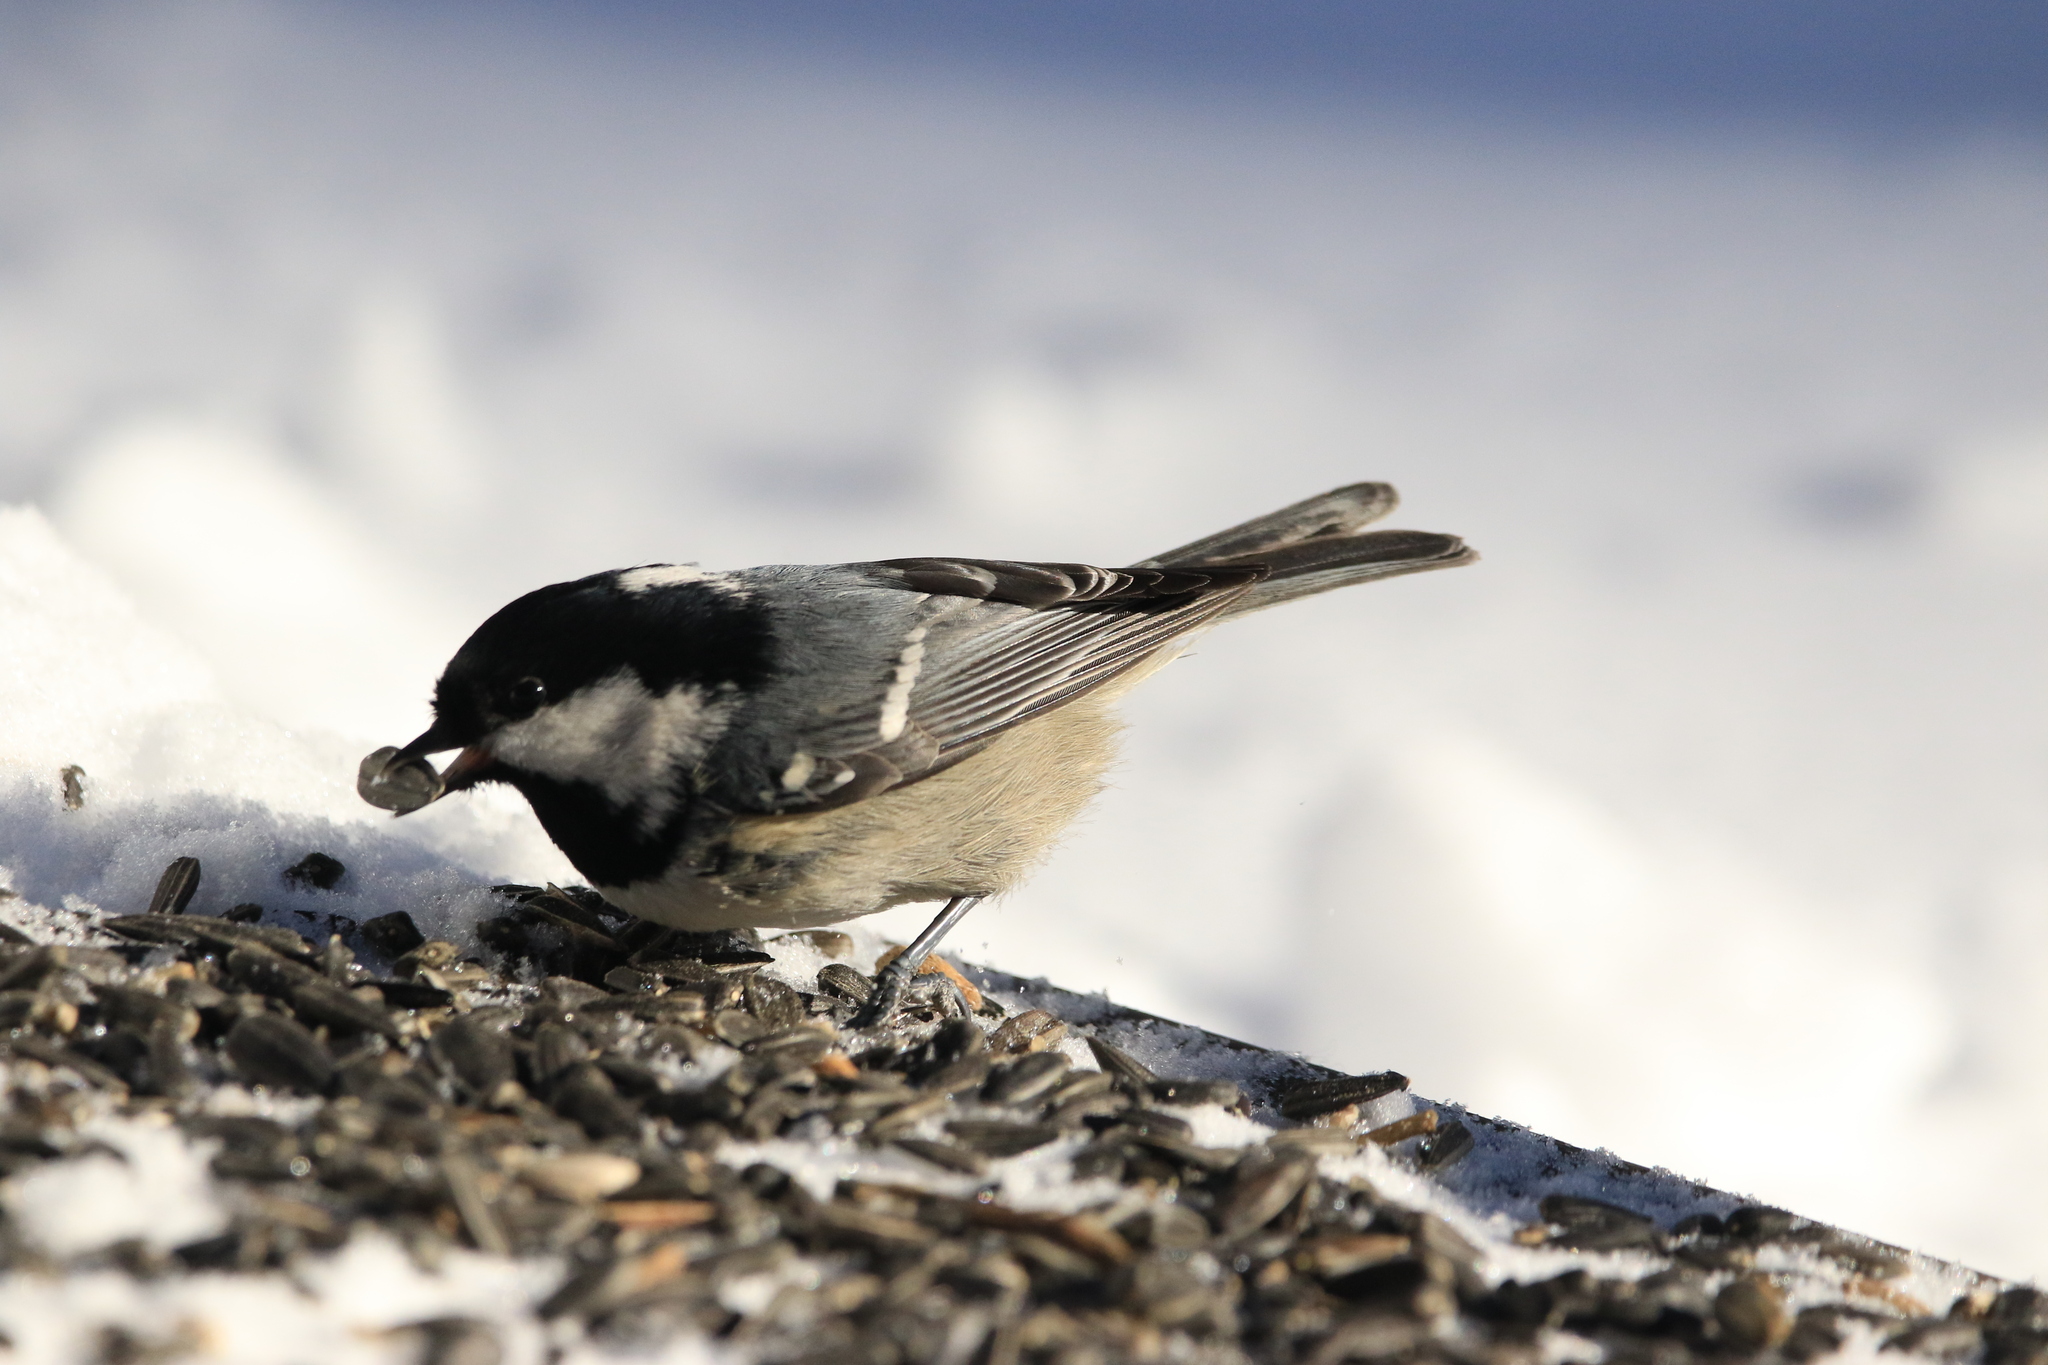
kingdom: Animalia
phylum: Chordata
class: Aves
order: Passeriformes
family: Paridae
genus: Periparus
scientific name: Periparus ater
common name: Coal tit
